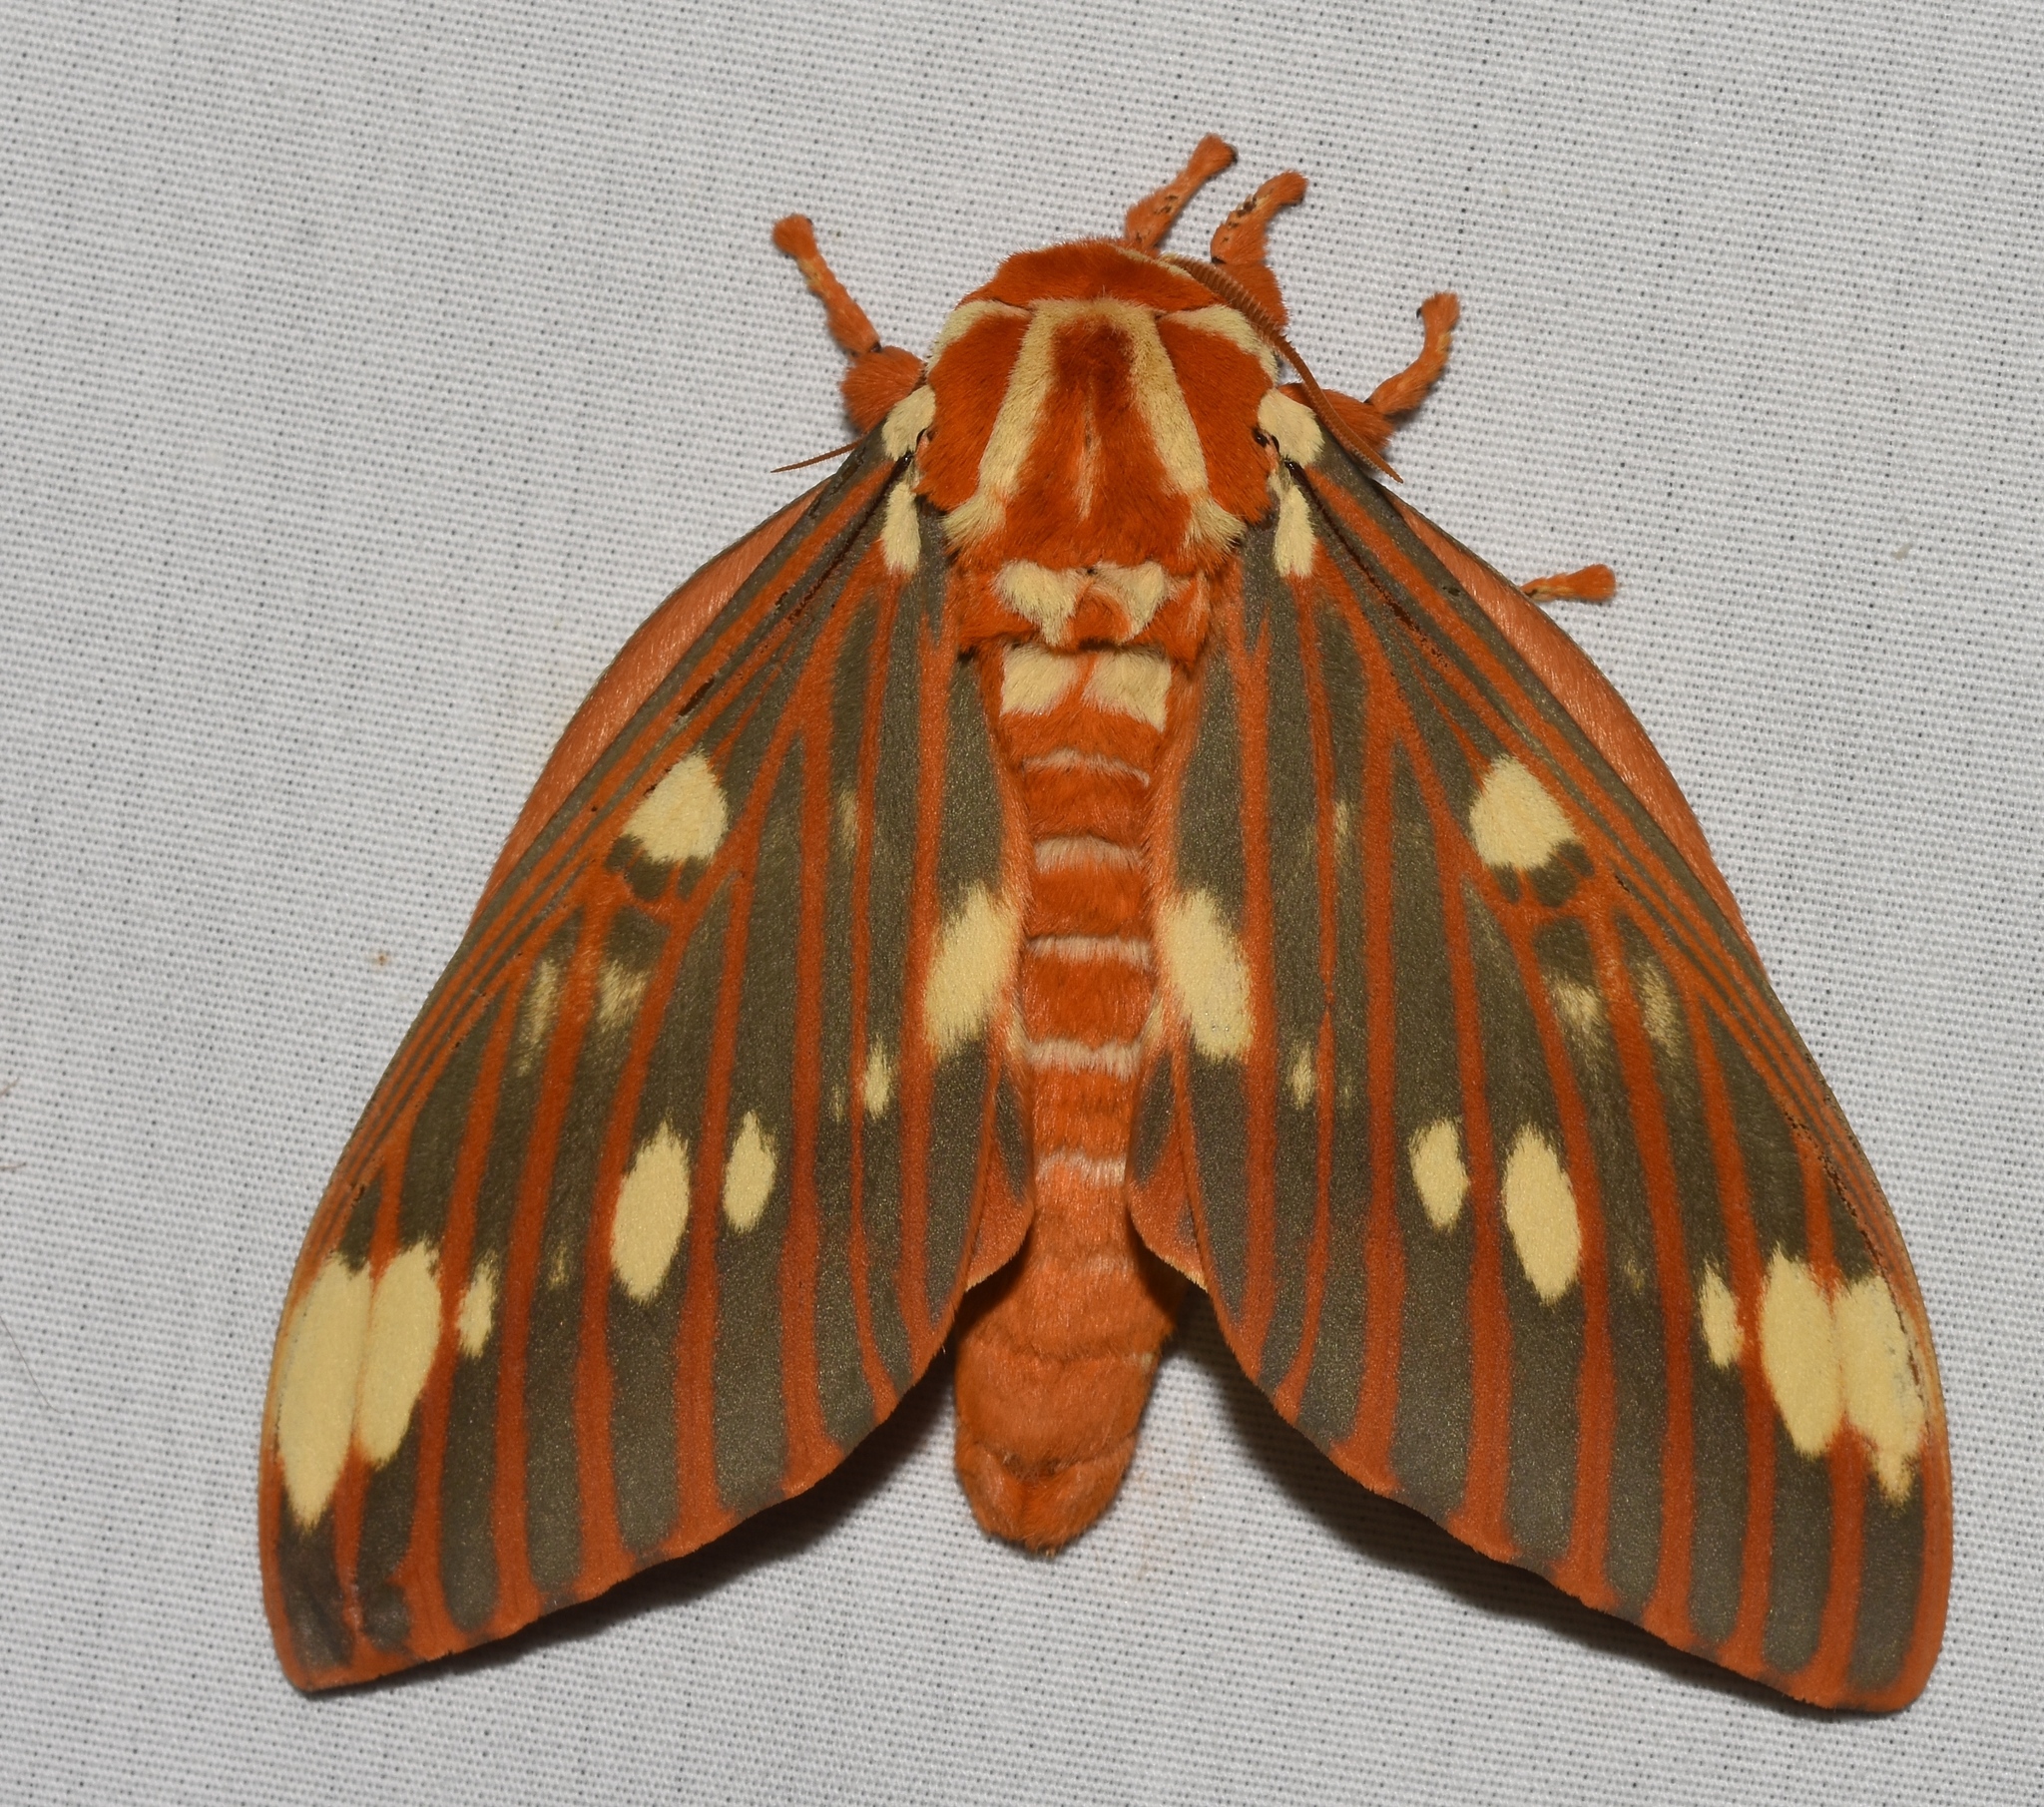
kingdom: Animalia
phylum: Arthropoda
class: Insecta
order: Lepidoptera
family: Saturniidae
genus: Citheronia
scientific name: Citheronia regalis
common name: Hickory horned devil
